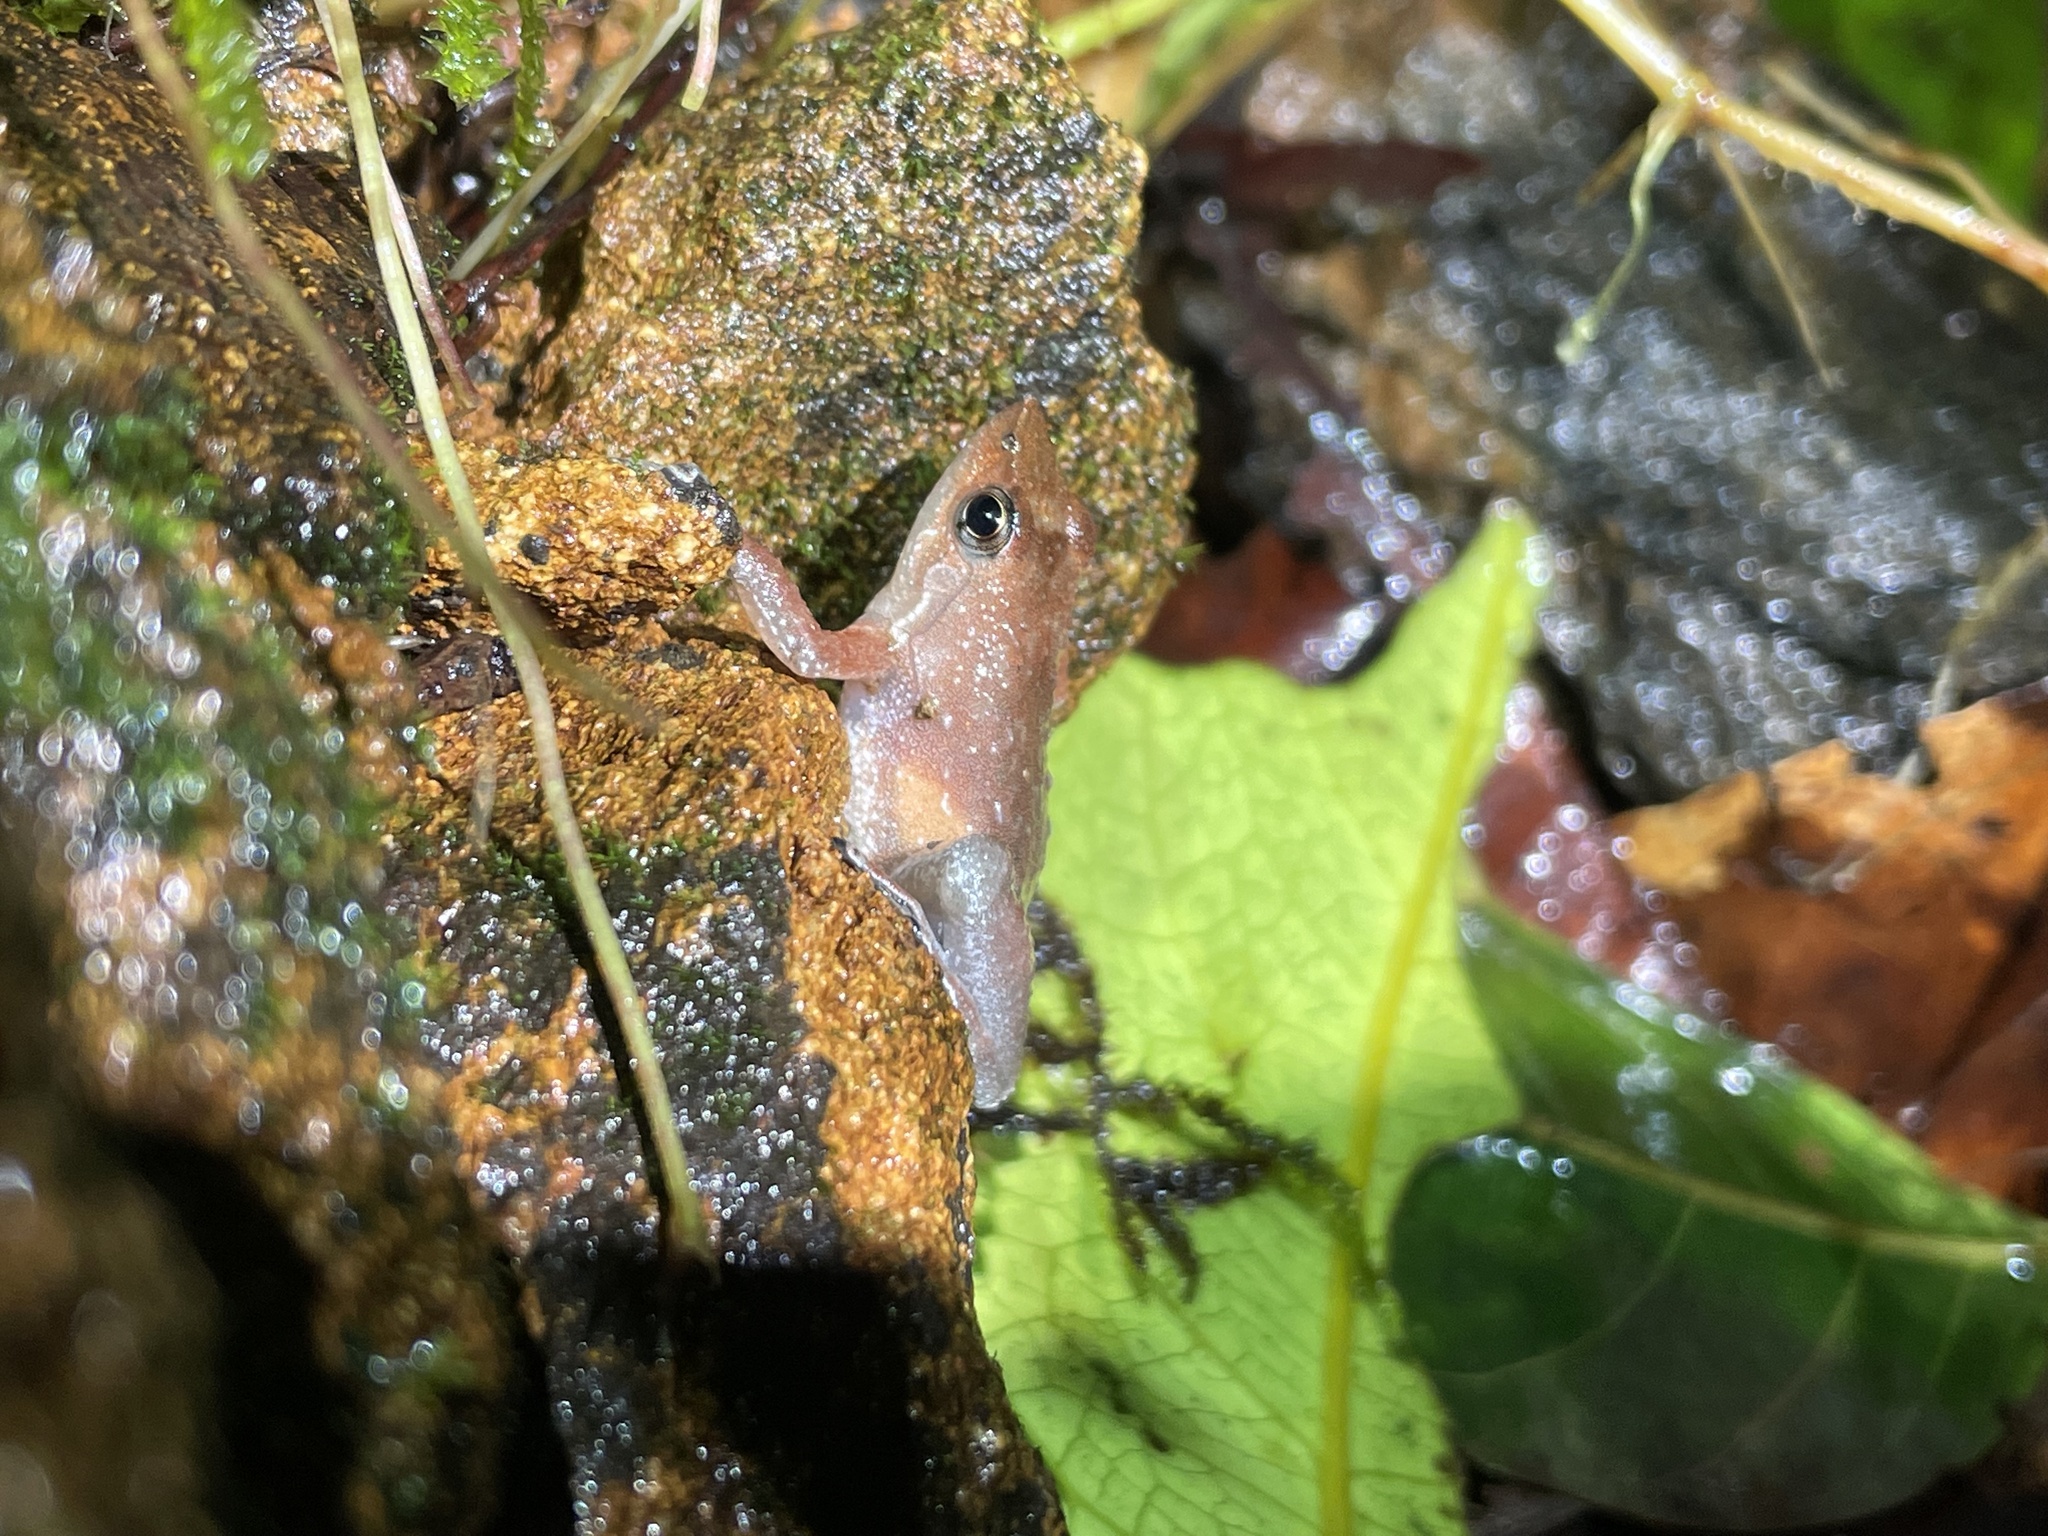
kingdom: Animalia
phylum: Chordata
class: Amphibia
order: Anura
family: Micrixalidae
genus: Micrixalus
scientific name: Micrixalus kottigeharensis
